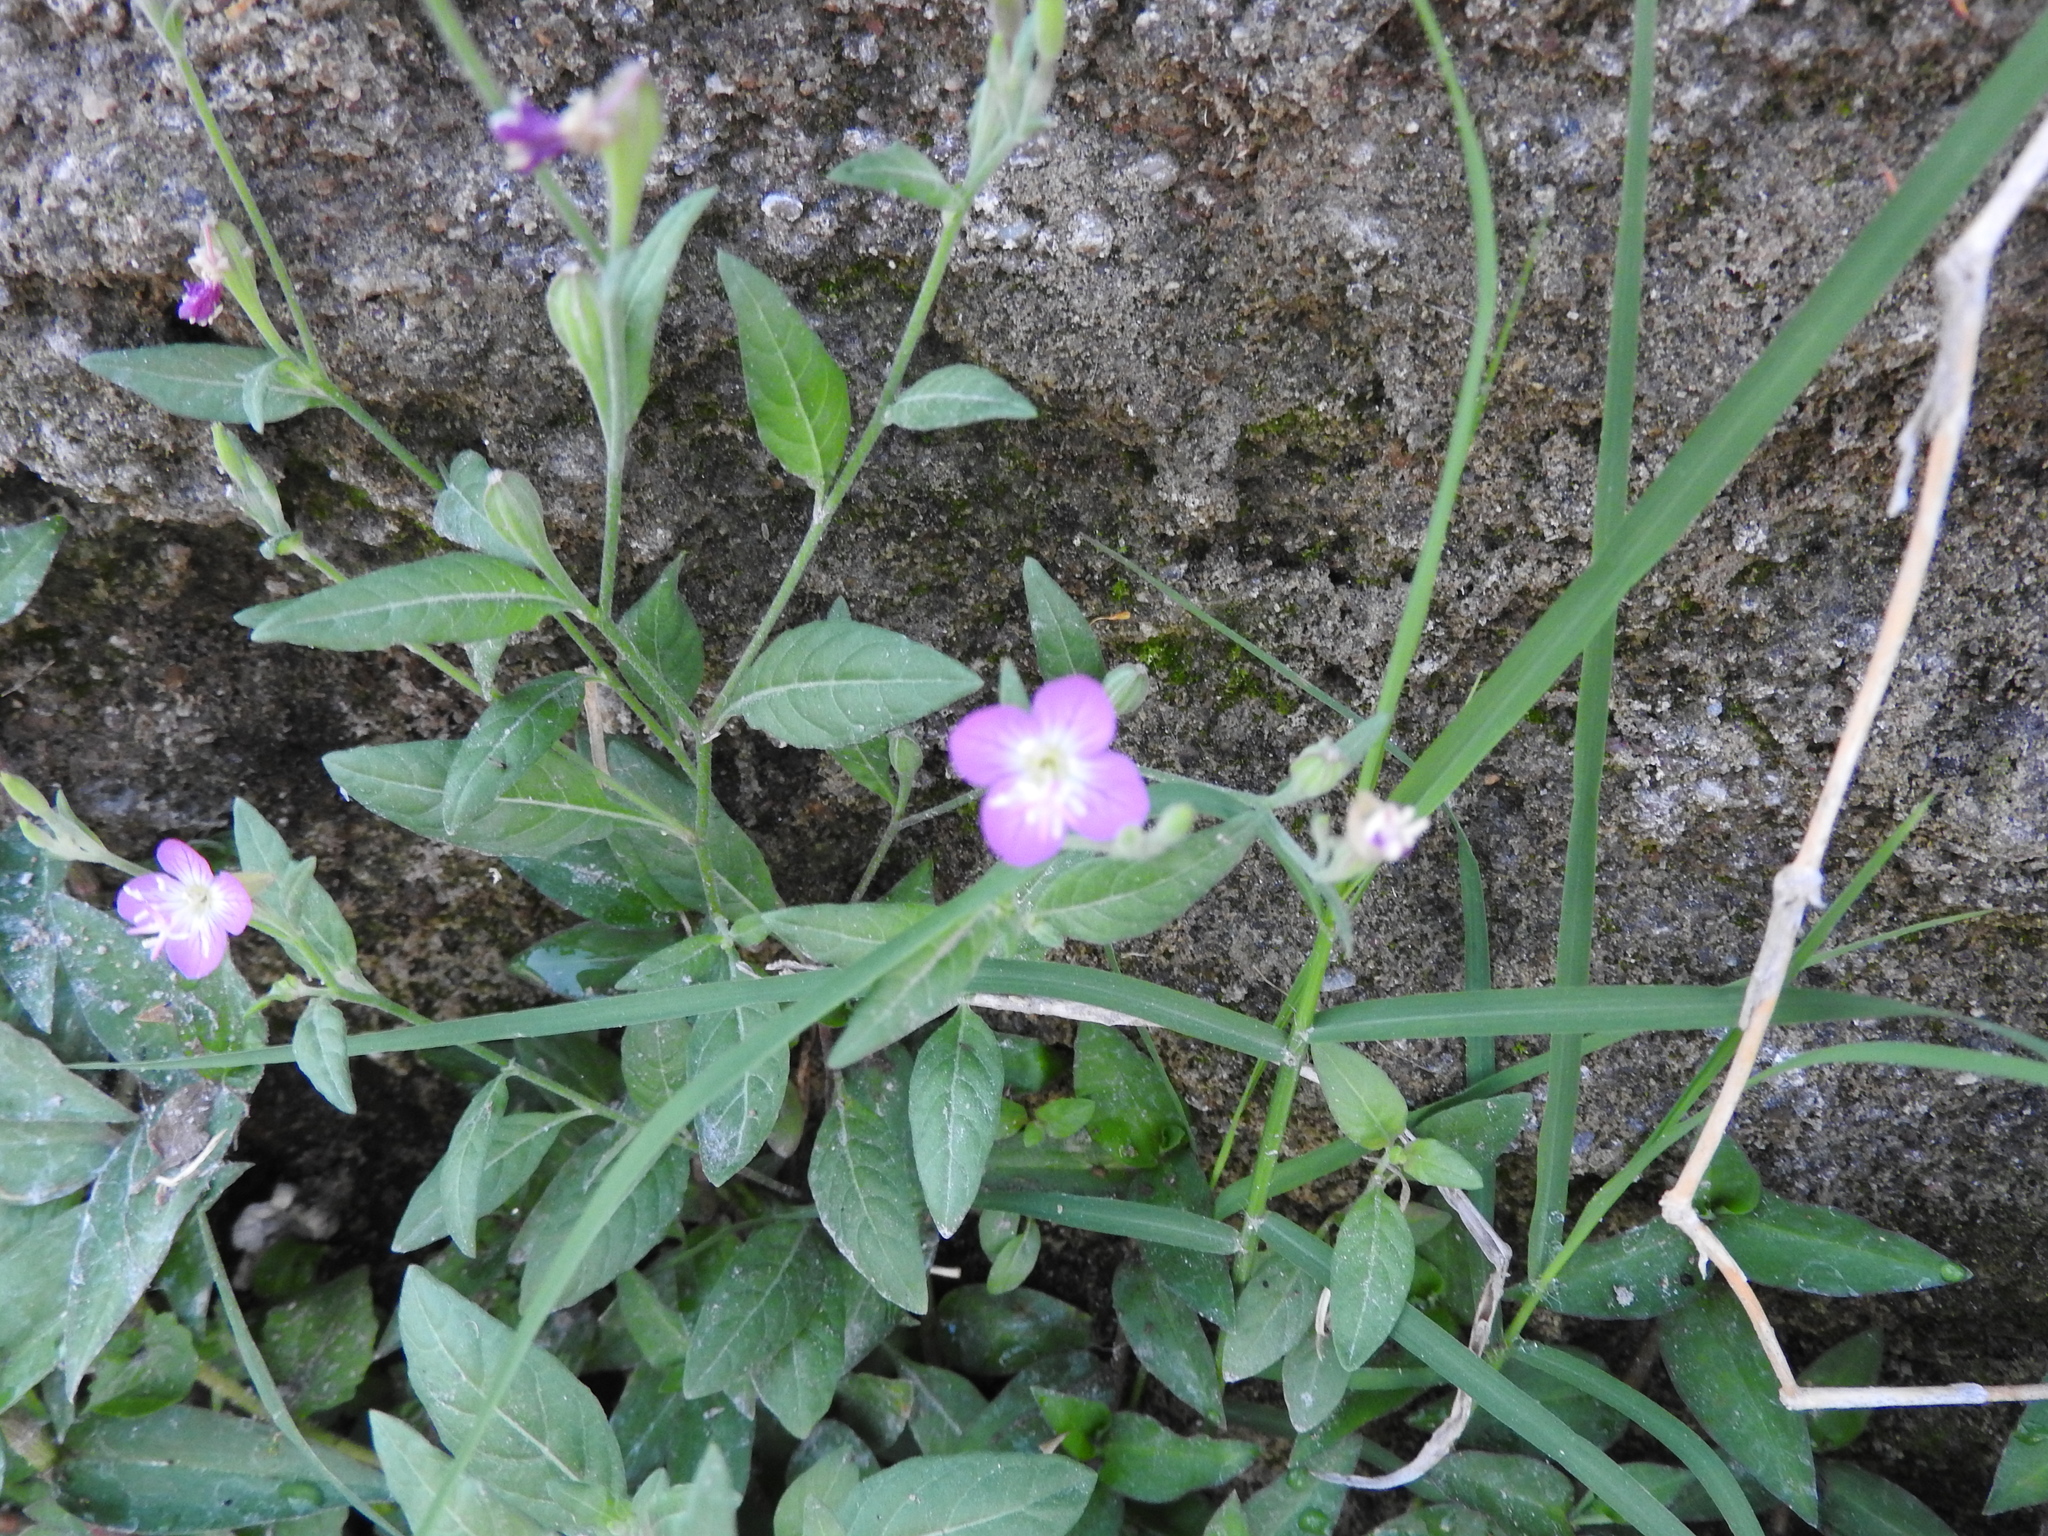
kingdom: Plantae
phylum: Tracheophyta
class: Magnoliopsida
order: Myrtales
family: Onagraceae
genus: Oenothera
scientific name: Oenothera rosea
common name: Rosy evening-primrose
